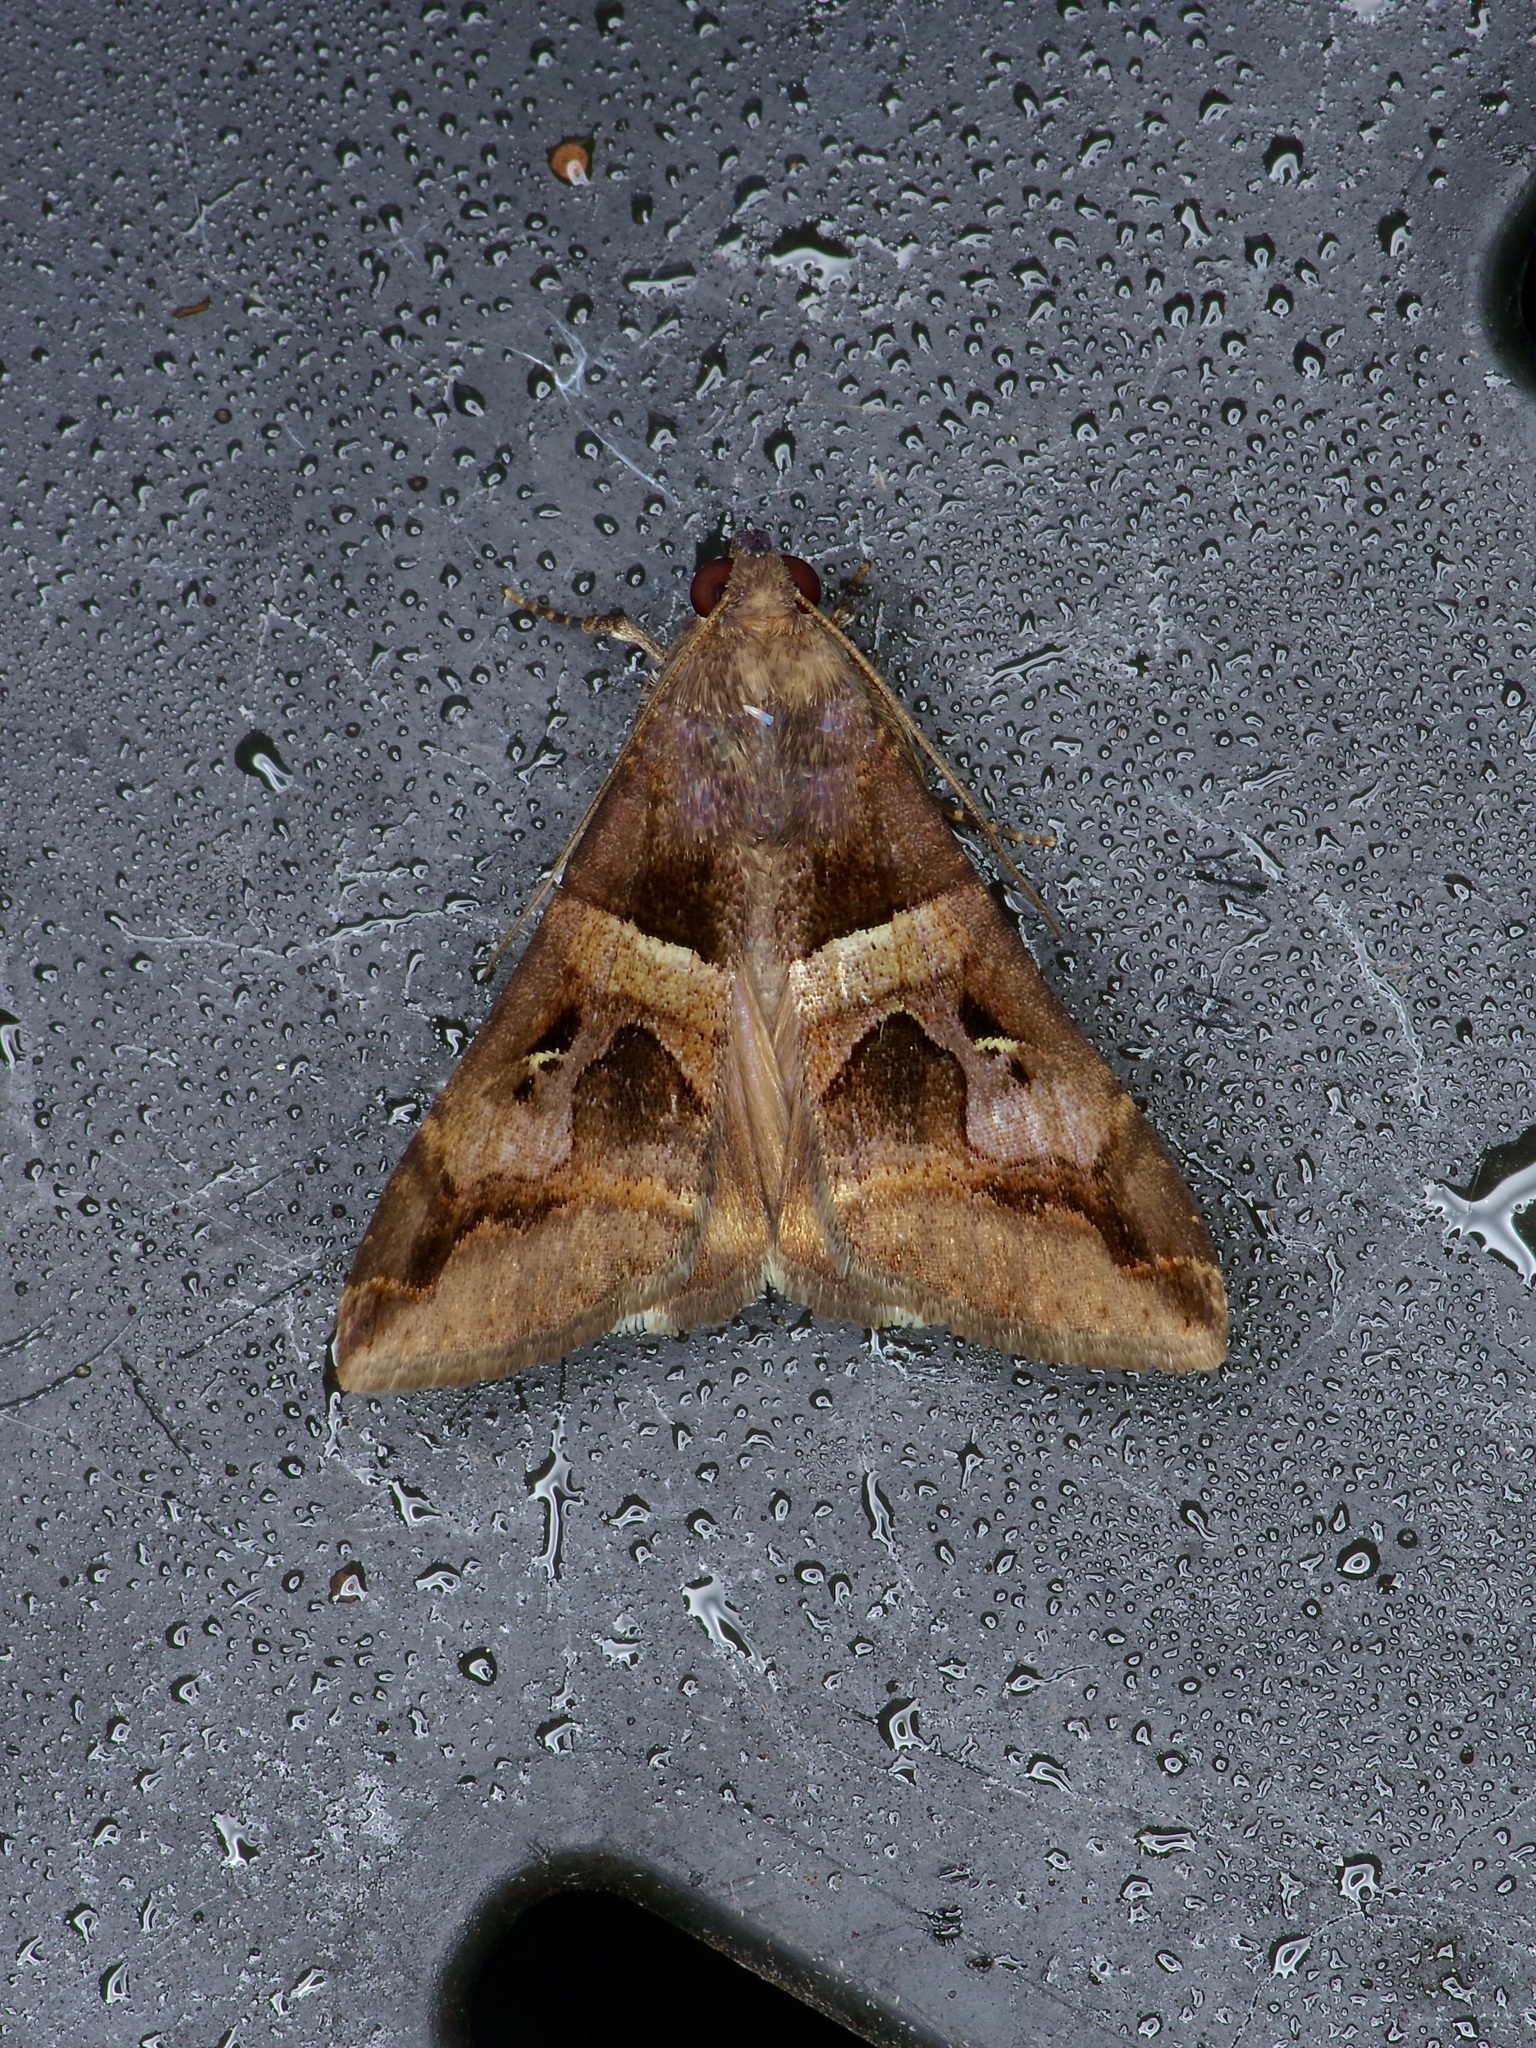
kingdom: Animalia
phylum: Arthropoda
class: Insecta
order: Lepidoptera
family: Erebidae
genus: Melipotis
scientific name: Melipotis perpendicularis
